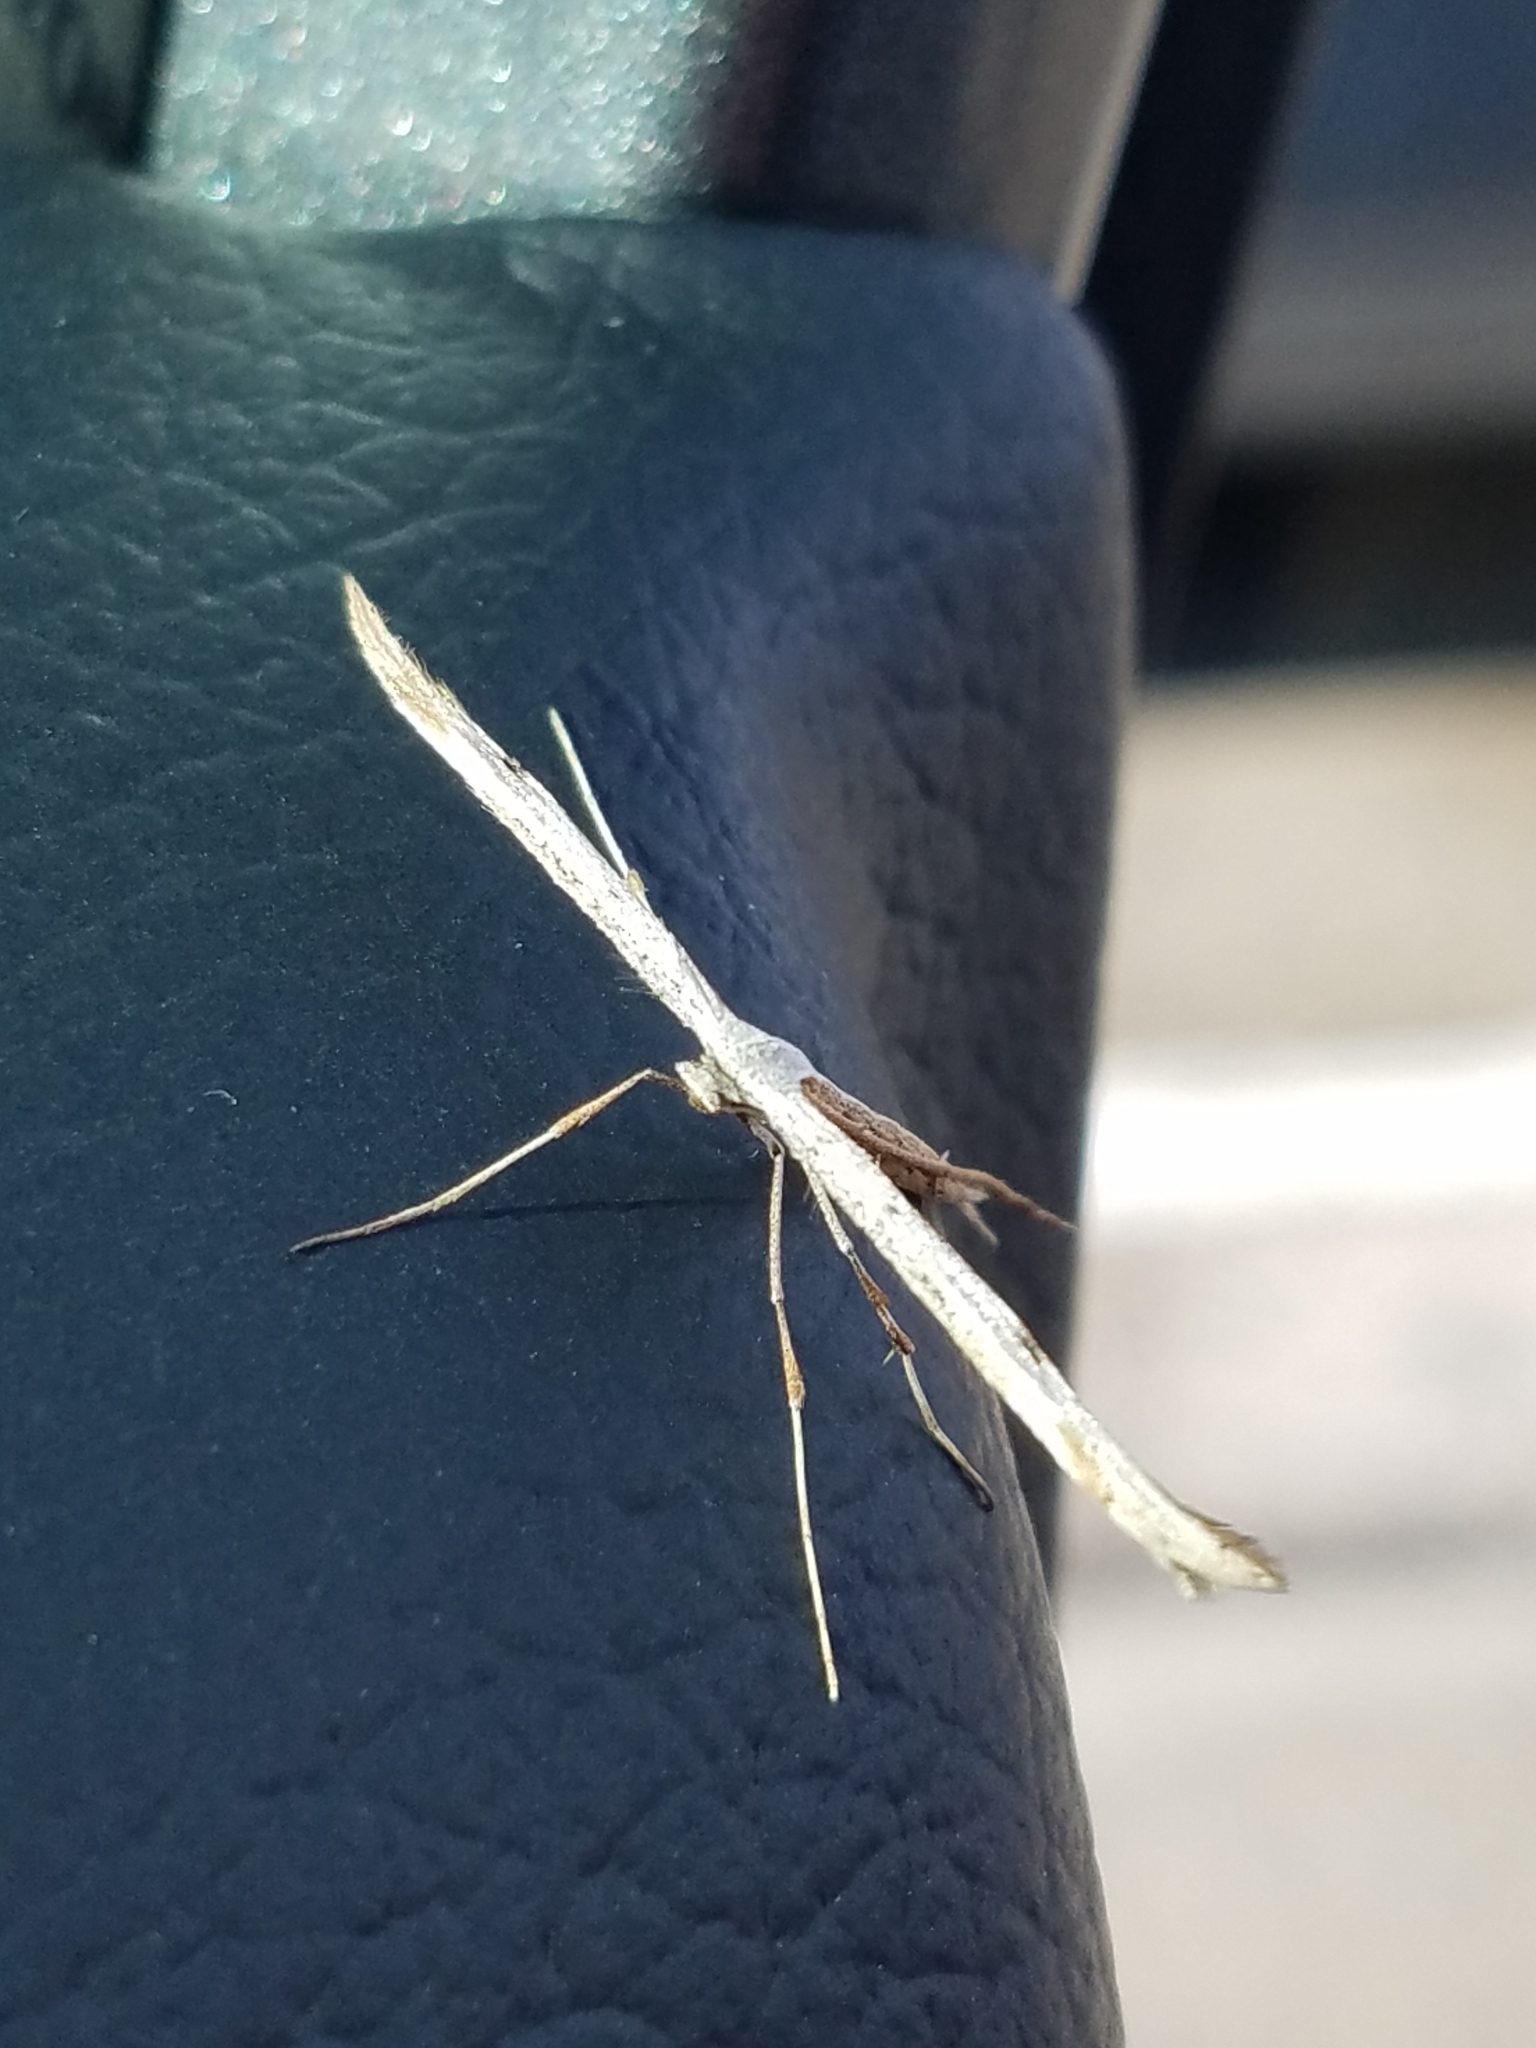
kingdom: Animalia
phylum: Arthropoda
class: Insecta
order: Lepidoptera
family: Pterophoridae
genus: Emmelina
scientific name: Emmelina monodactyla
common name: Common plume
